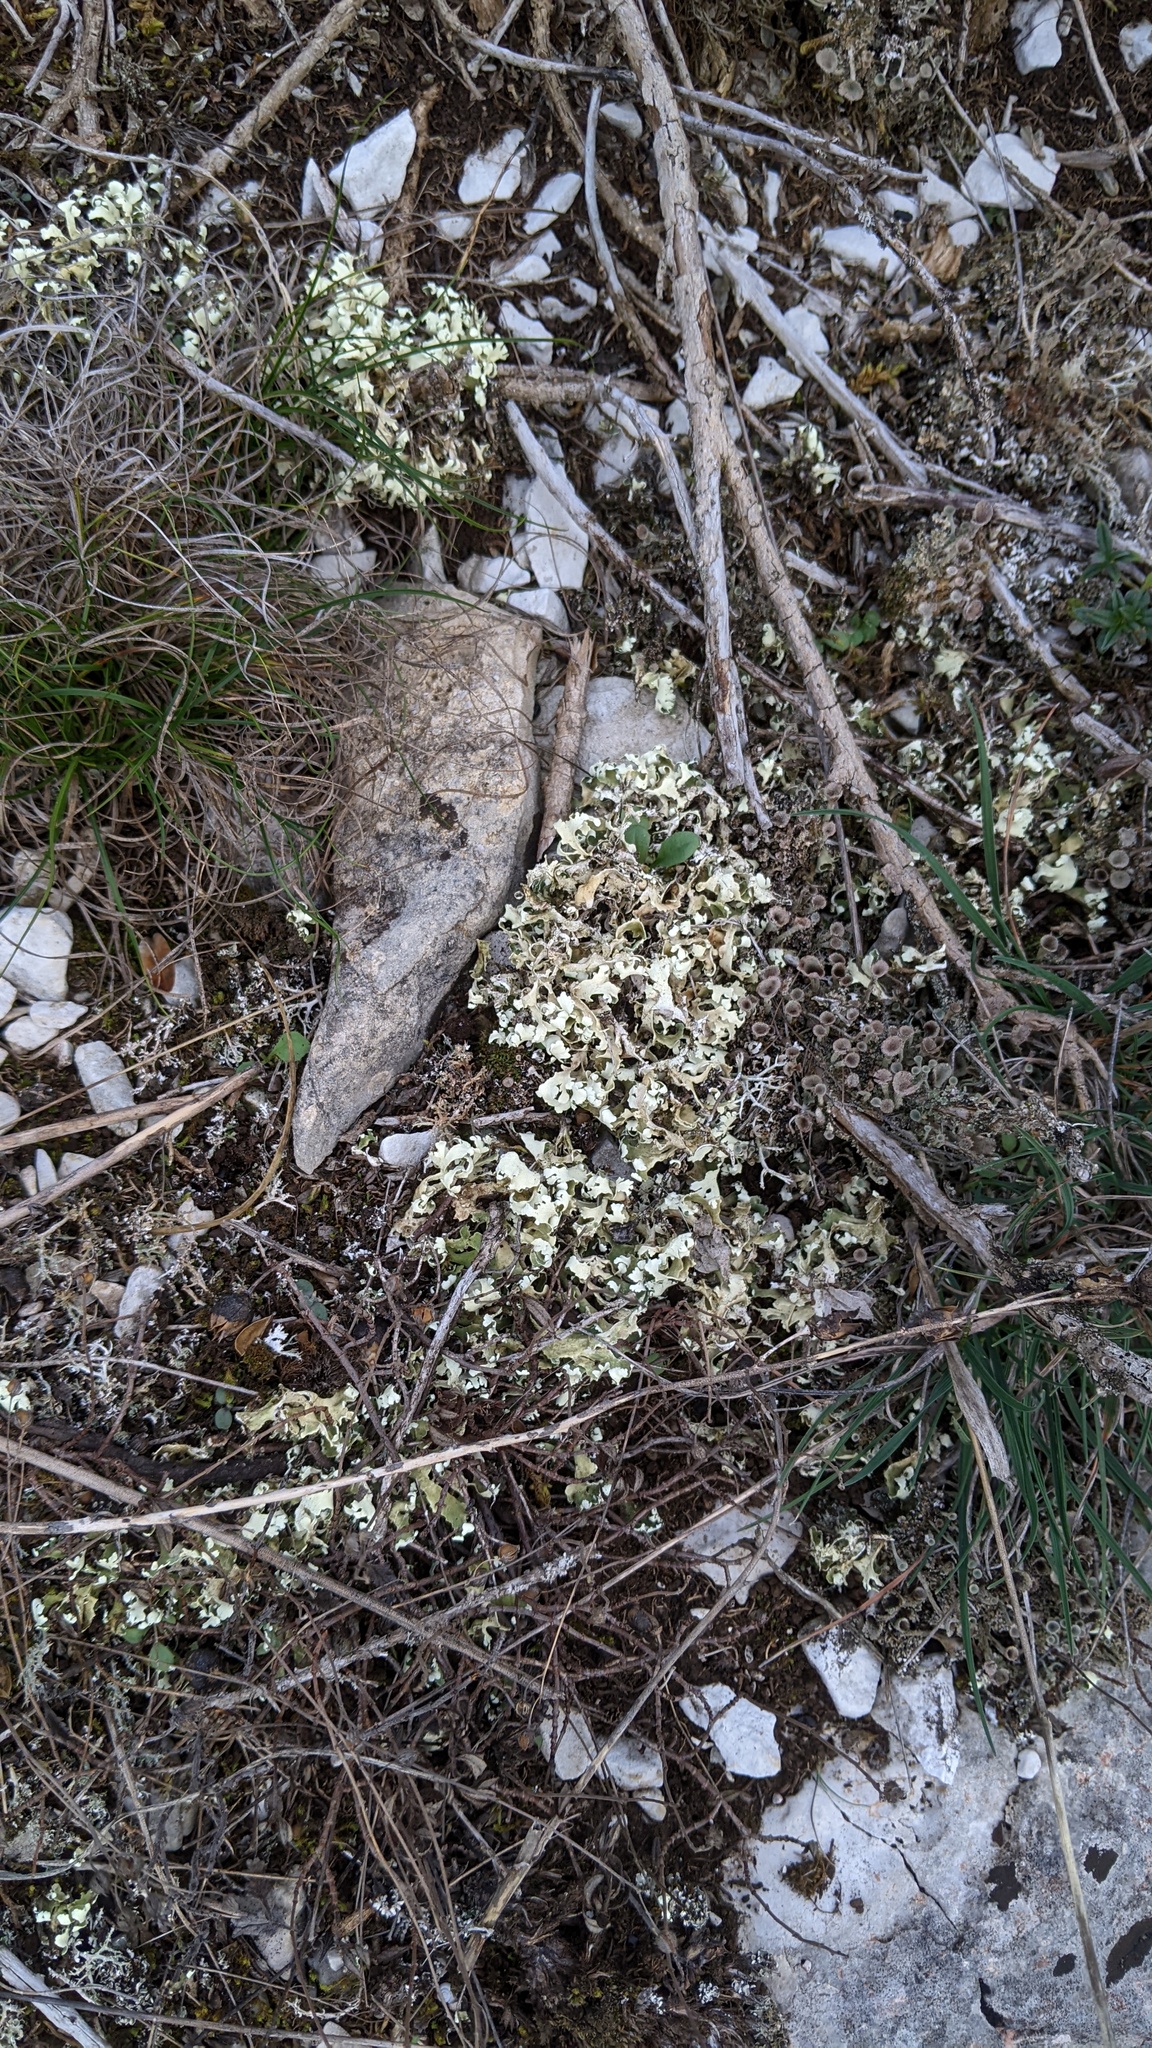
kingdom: Fungi
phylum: Ascomycota
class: Lecanoromycetes
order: Lecanorales
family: Cladoniaceae
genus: Cladonia
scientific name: Cladonia foliacea
